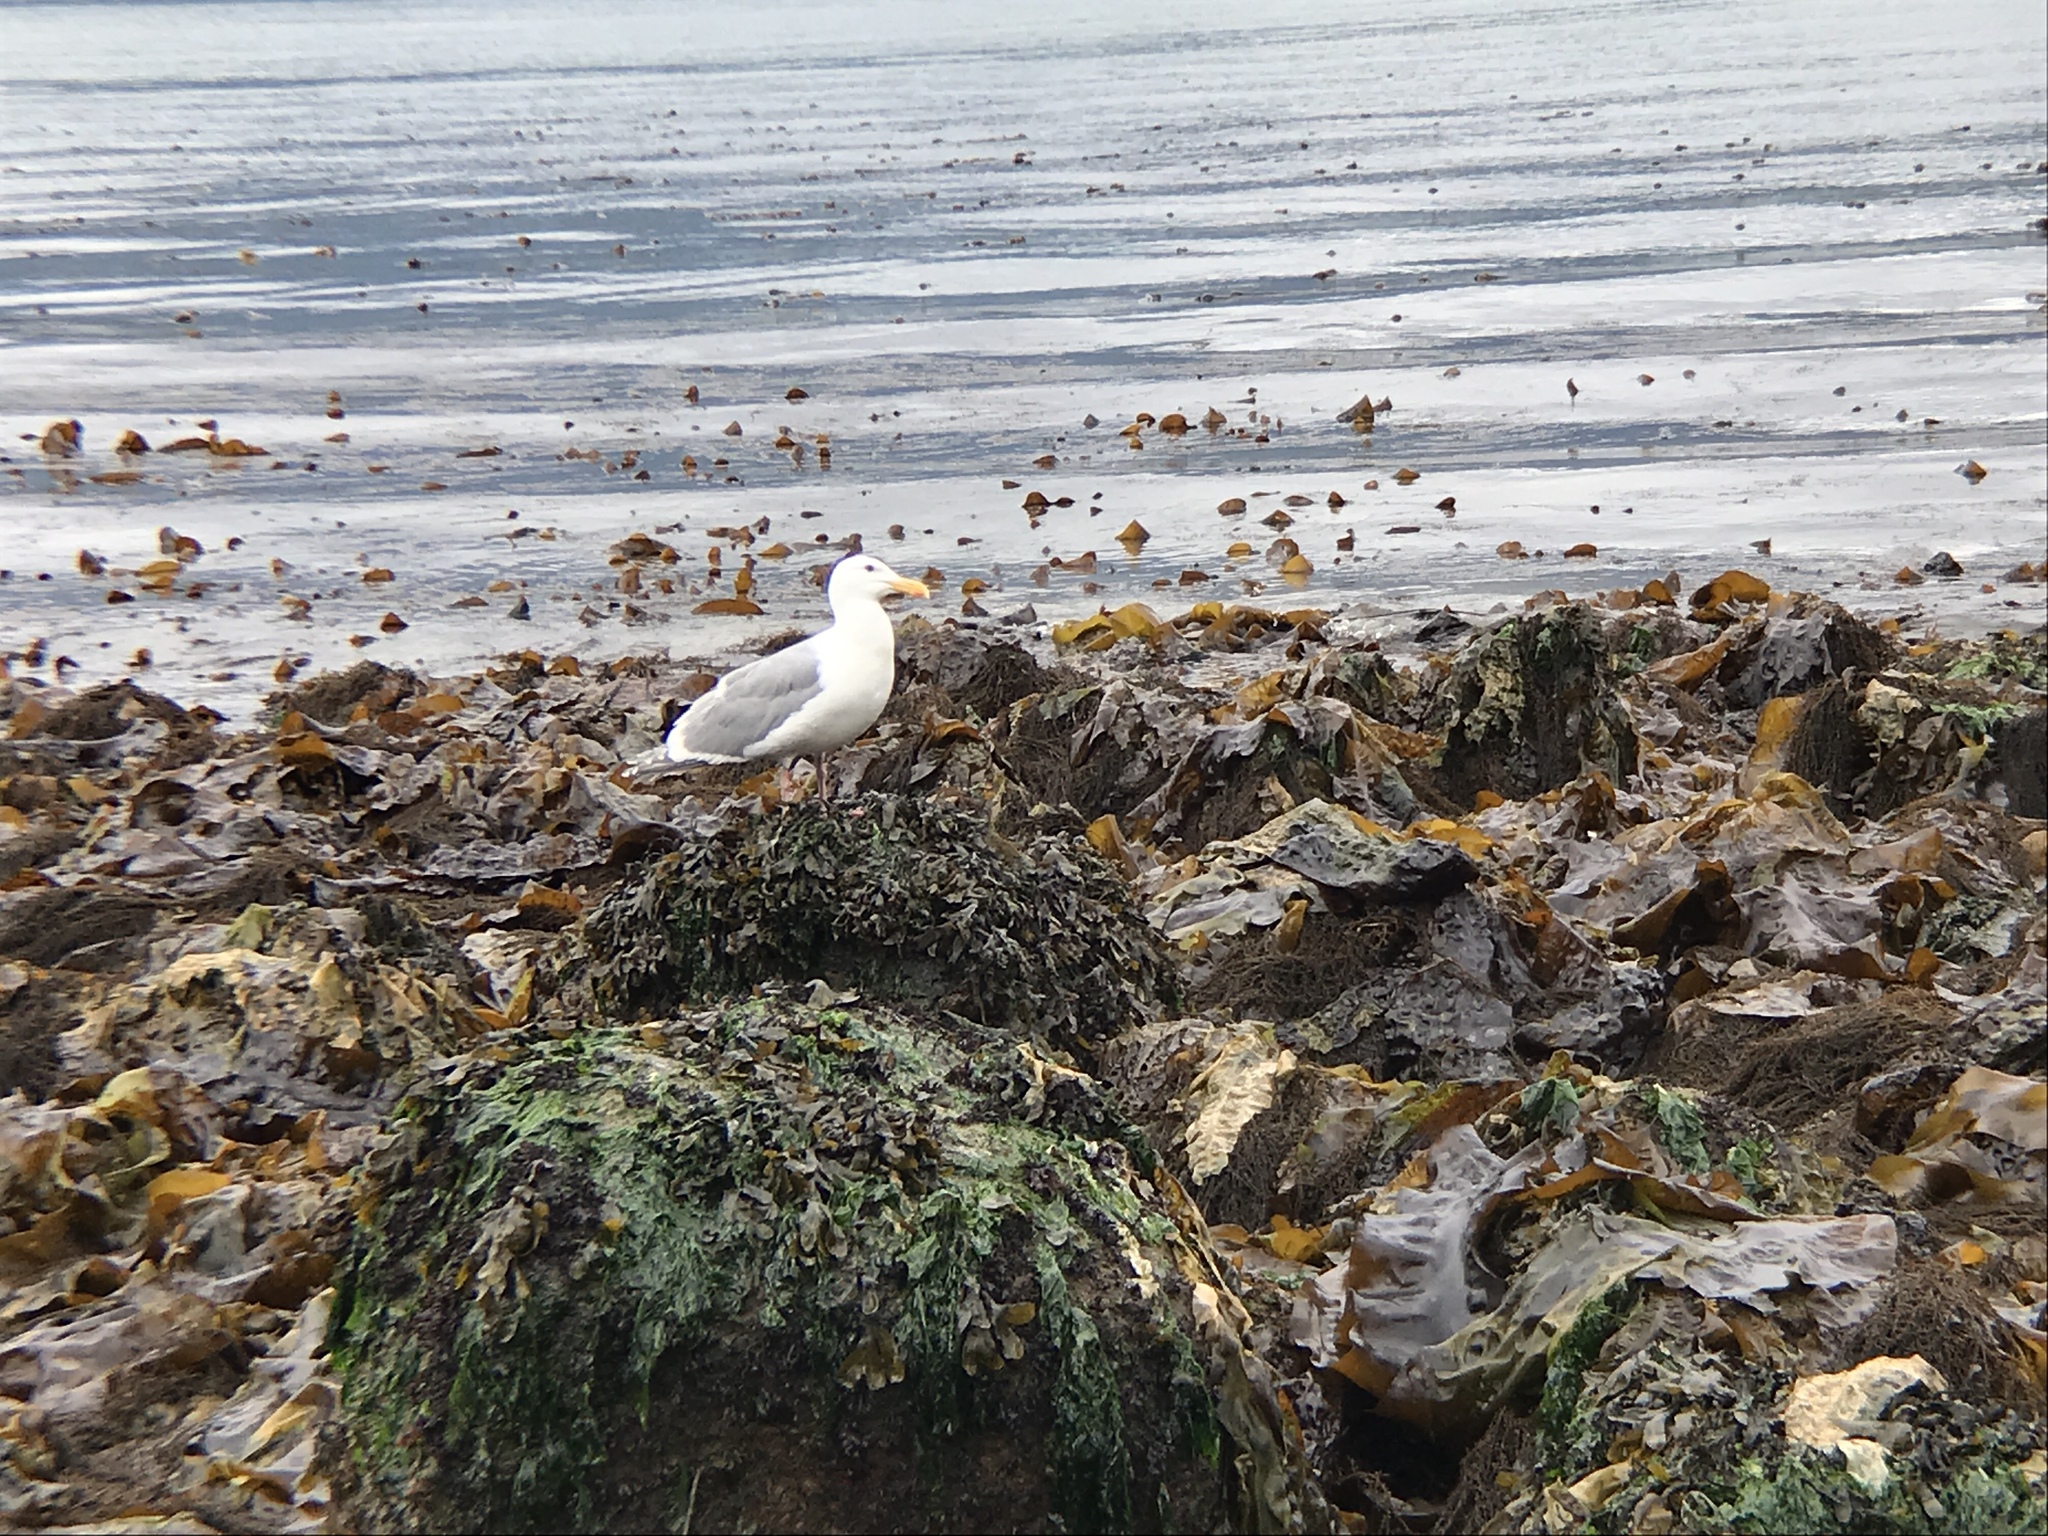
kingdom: Animalia
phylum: Chordata
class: Aves
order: Charadriiformes
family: Laridae
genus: Larus
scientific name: Larus glaucescens
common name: Glaucous-winged gull
